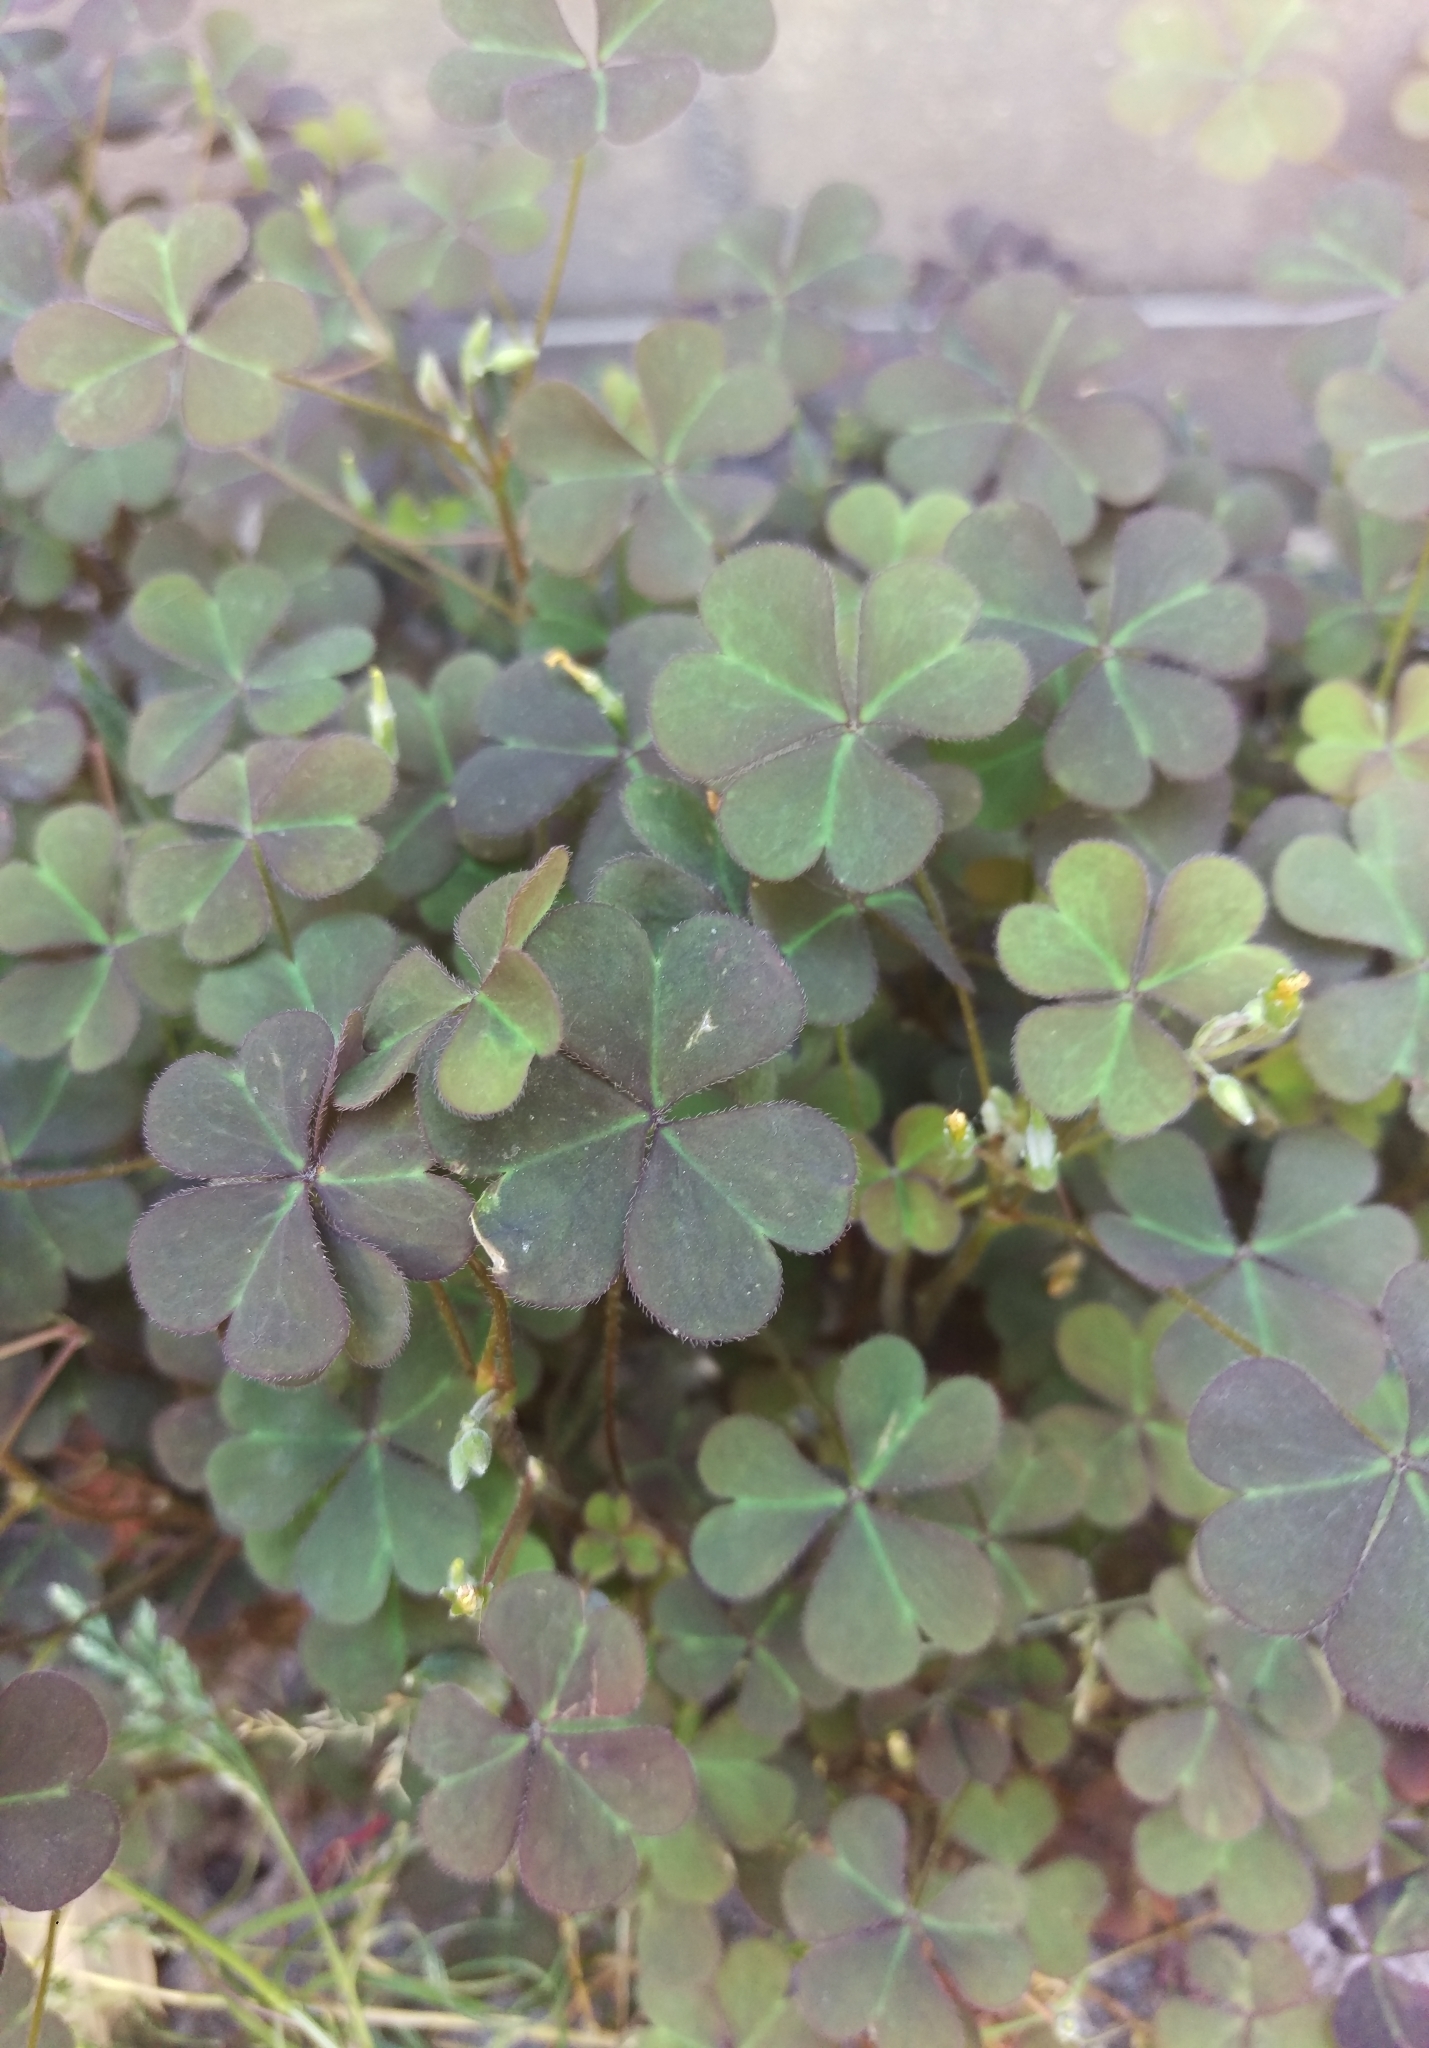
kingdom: Plantae
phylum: Tracheophyta
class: Magnoliopsida
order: Oxalidales
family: Oxalidaceae
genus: Oxalis
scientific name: Oxalis corniculata
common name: Procumbent yellow-sorrel
